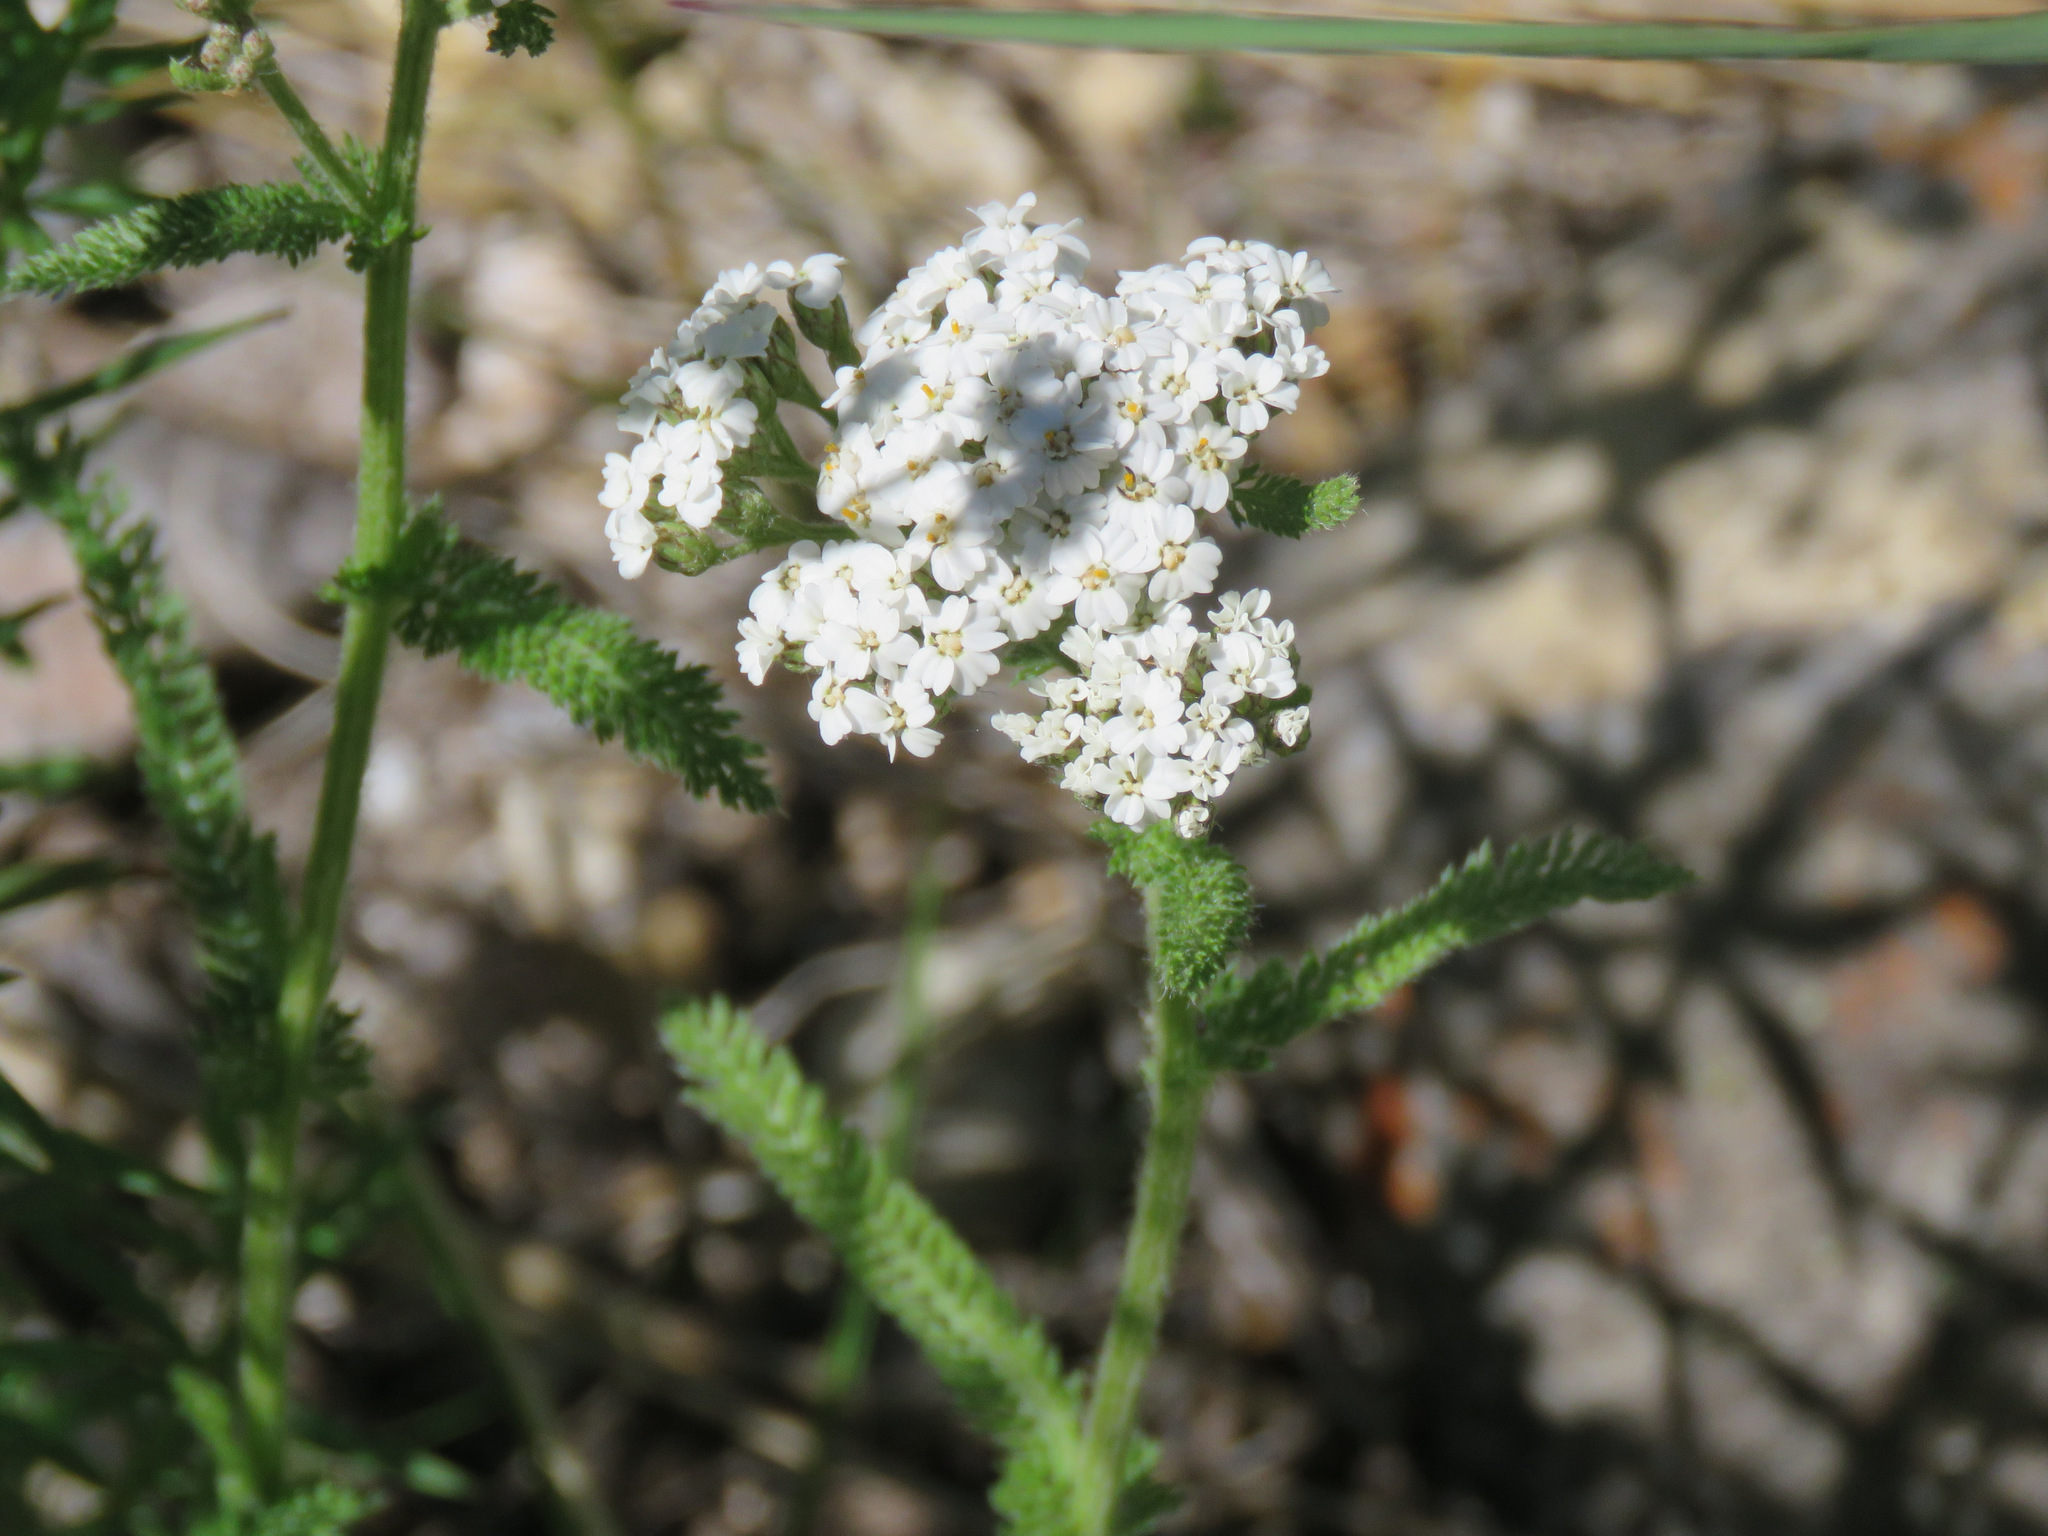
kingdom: Plantae
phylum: Tracheophyta
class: Magnoliopsida
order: Asterales
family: Asteraceae
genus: Achillea
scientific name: Achillea millefolium
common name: Yarrow
